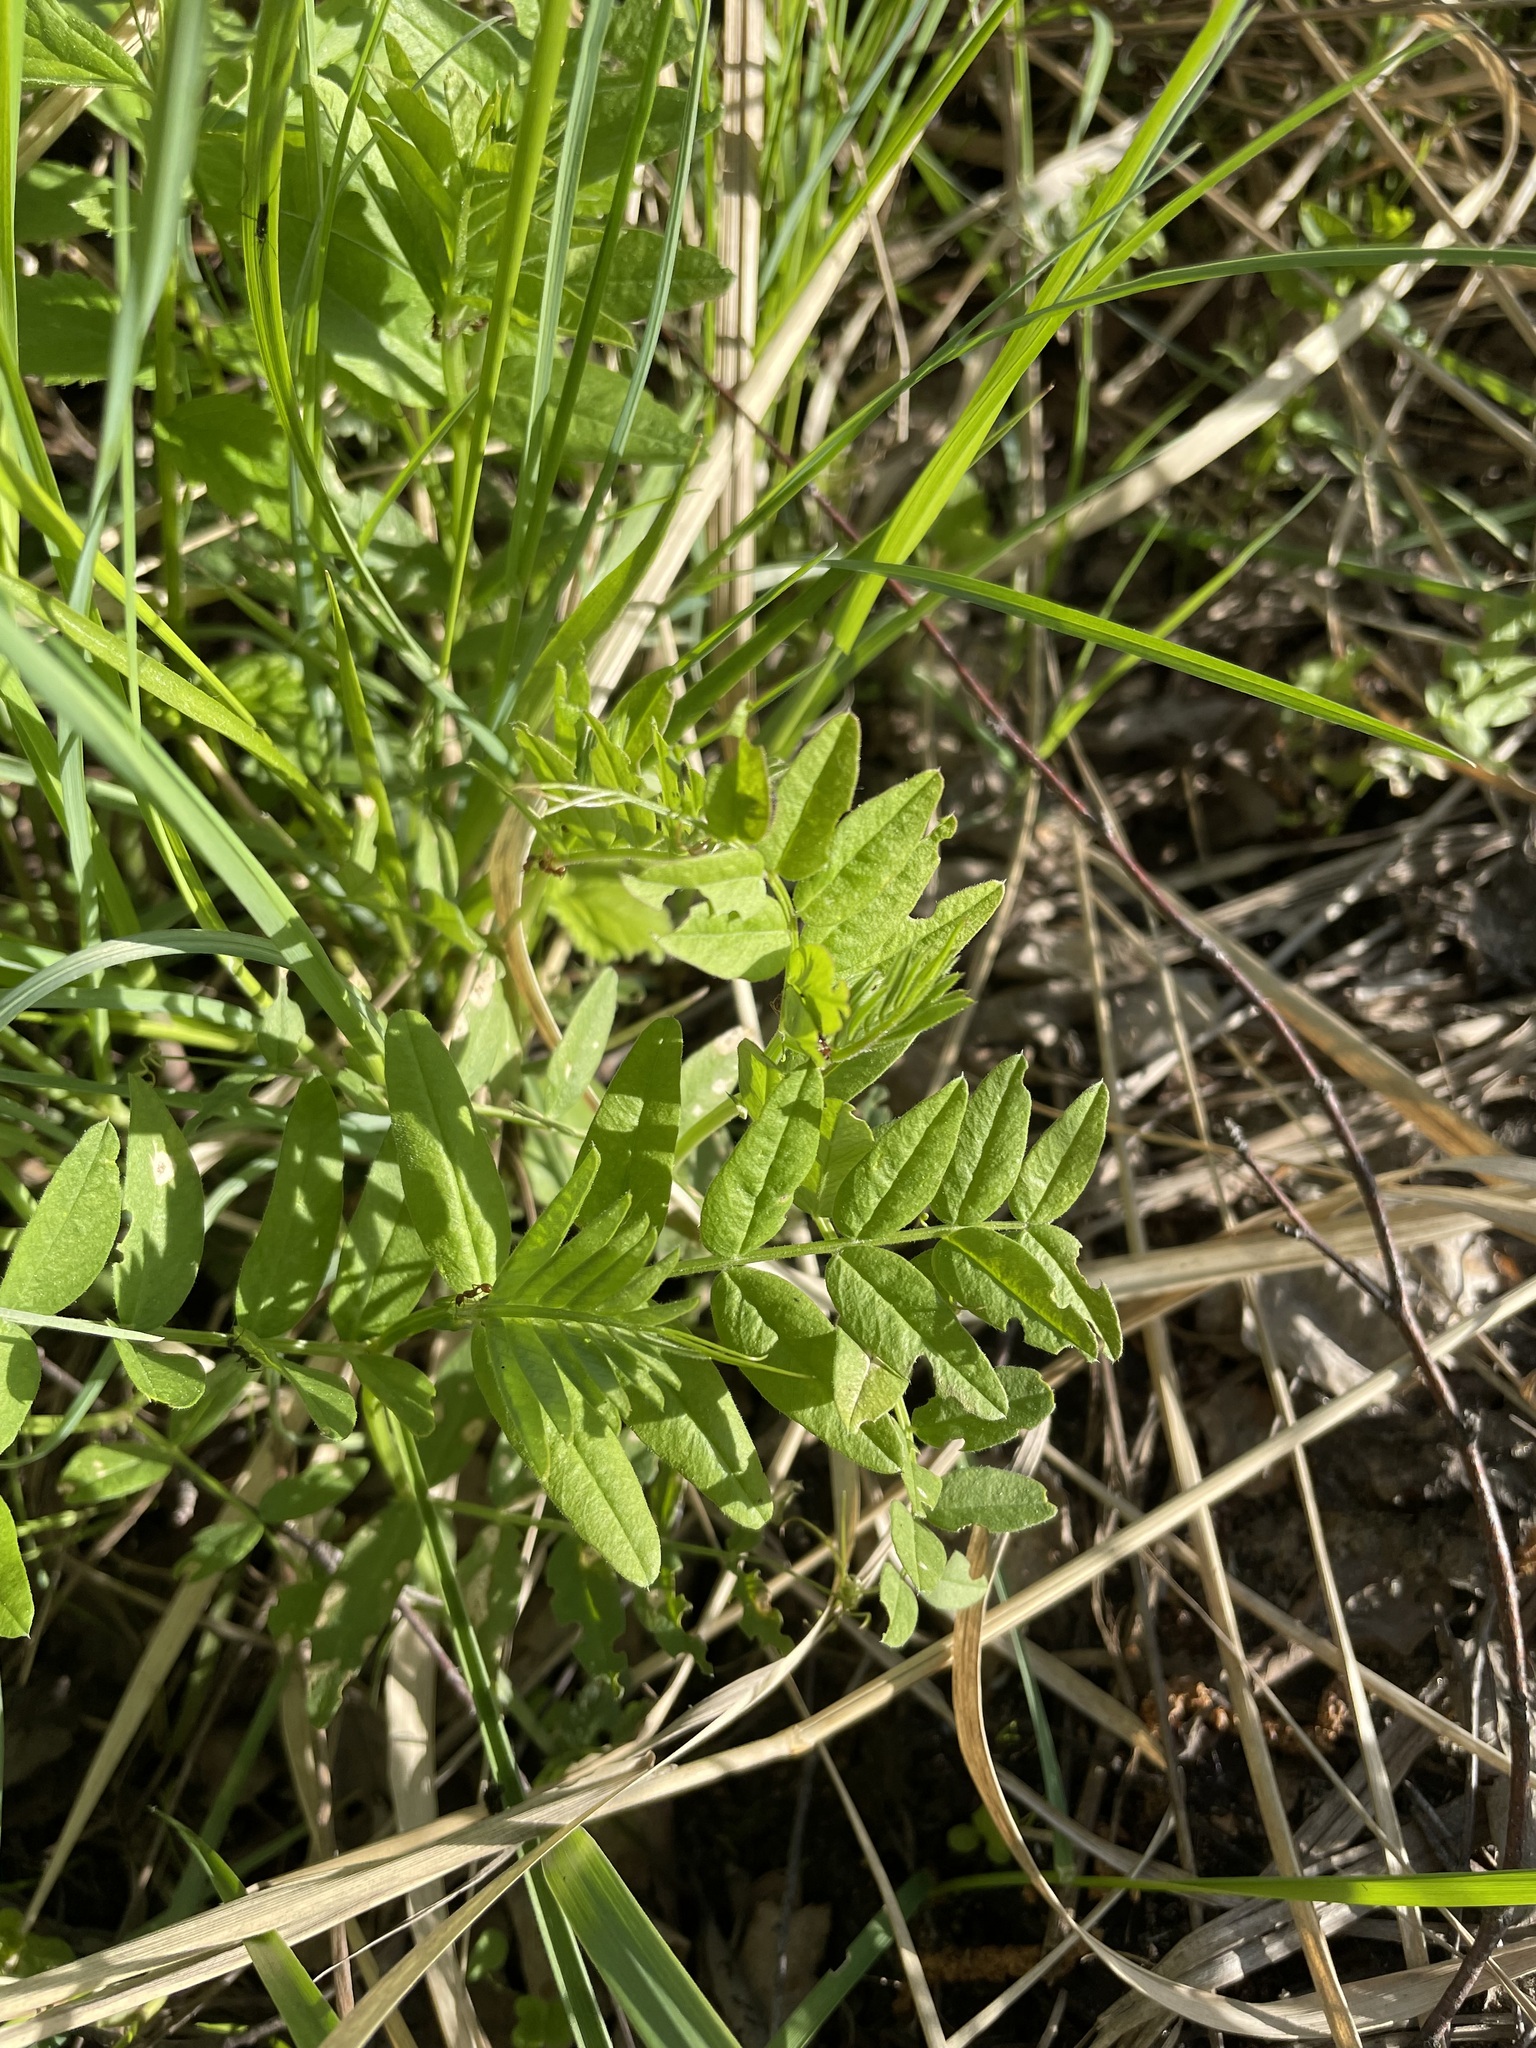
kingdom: Plantae
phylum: Tracheophyta
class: Magnoliopsida
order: Fabales
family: Fabaceae
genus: Vicia
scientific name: Vicia sepium
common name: Bush vetch
